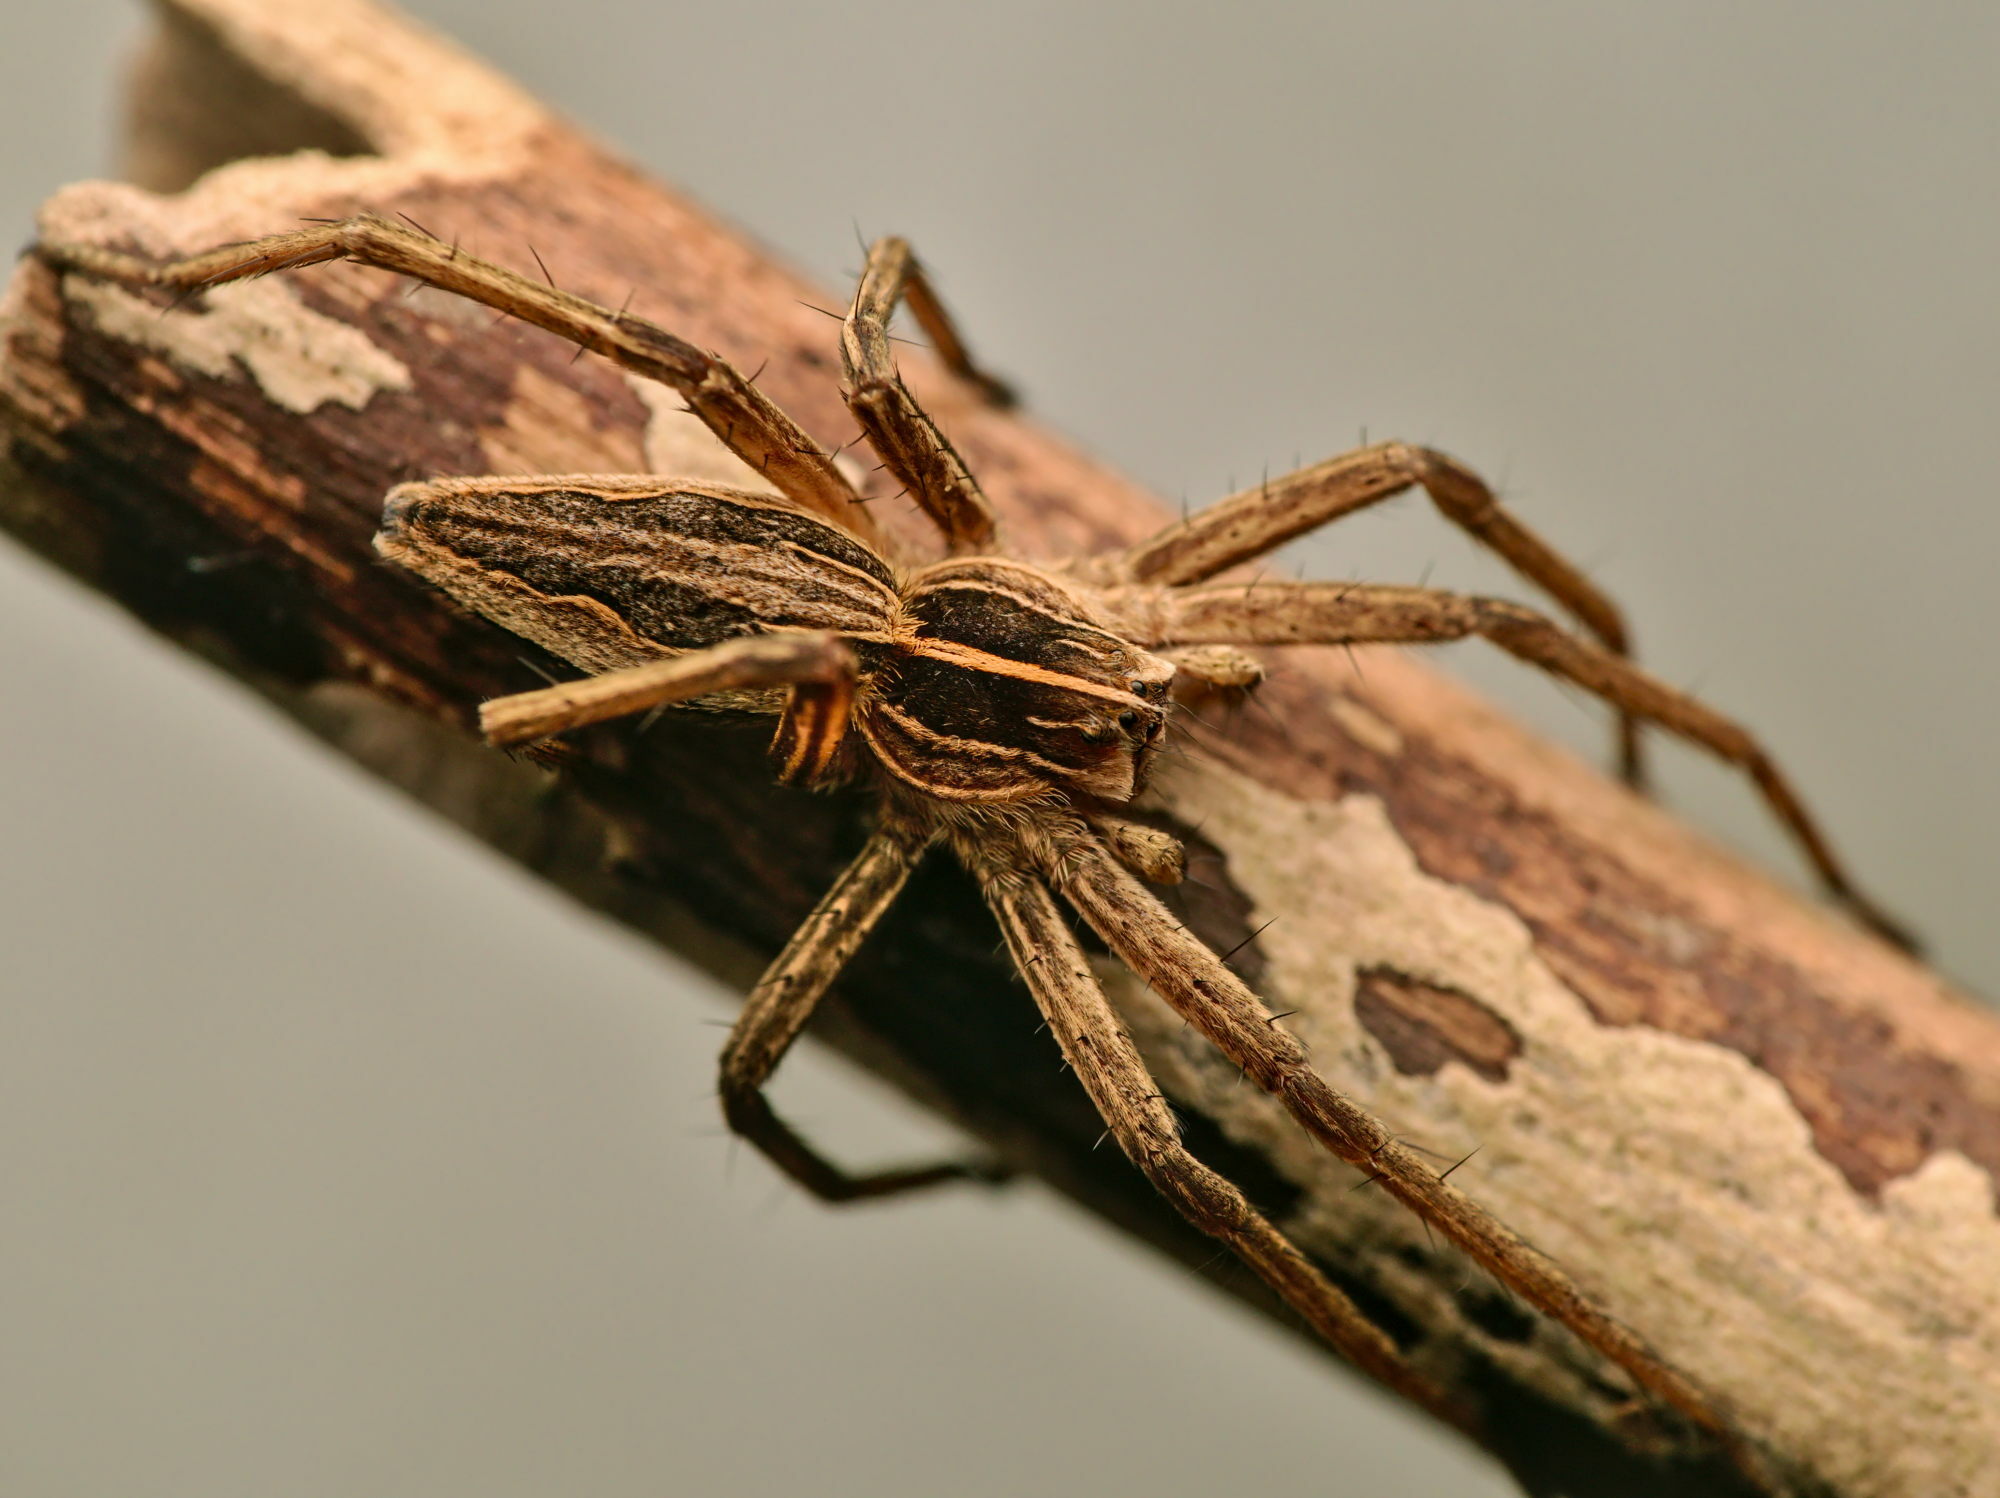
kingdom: Animalia
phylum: Arthropoda
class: Arachnida
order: Araneae
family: Pisauridae
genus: Pisaura
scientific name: Pisaura mirabilis
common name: Tent spider
